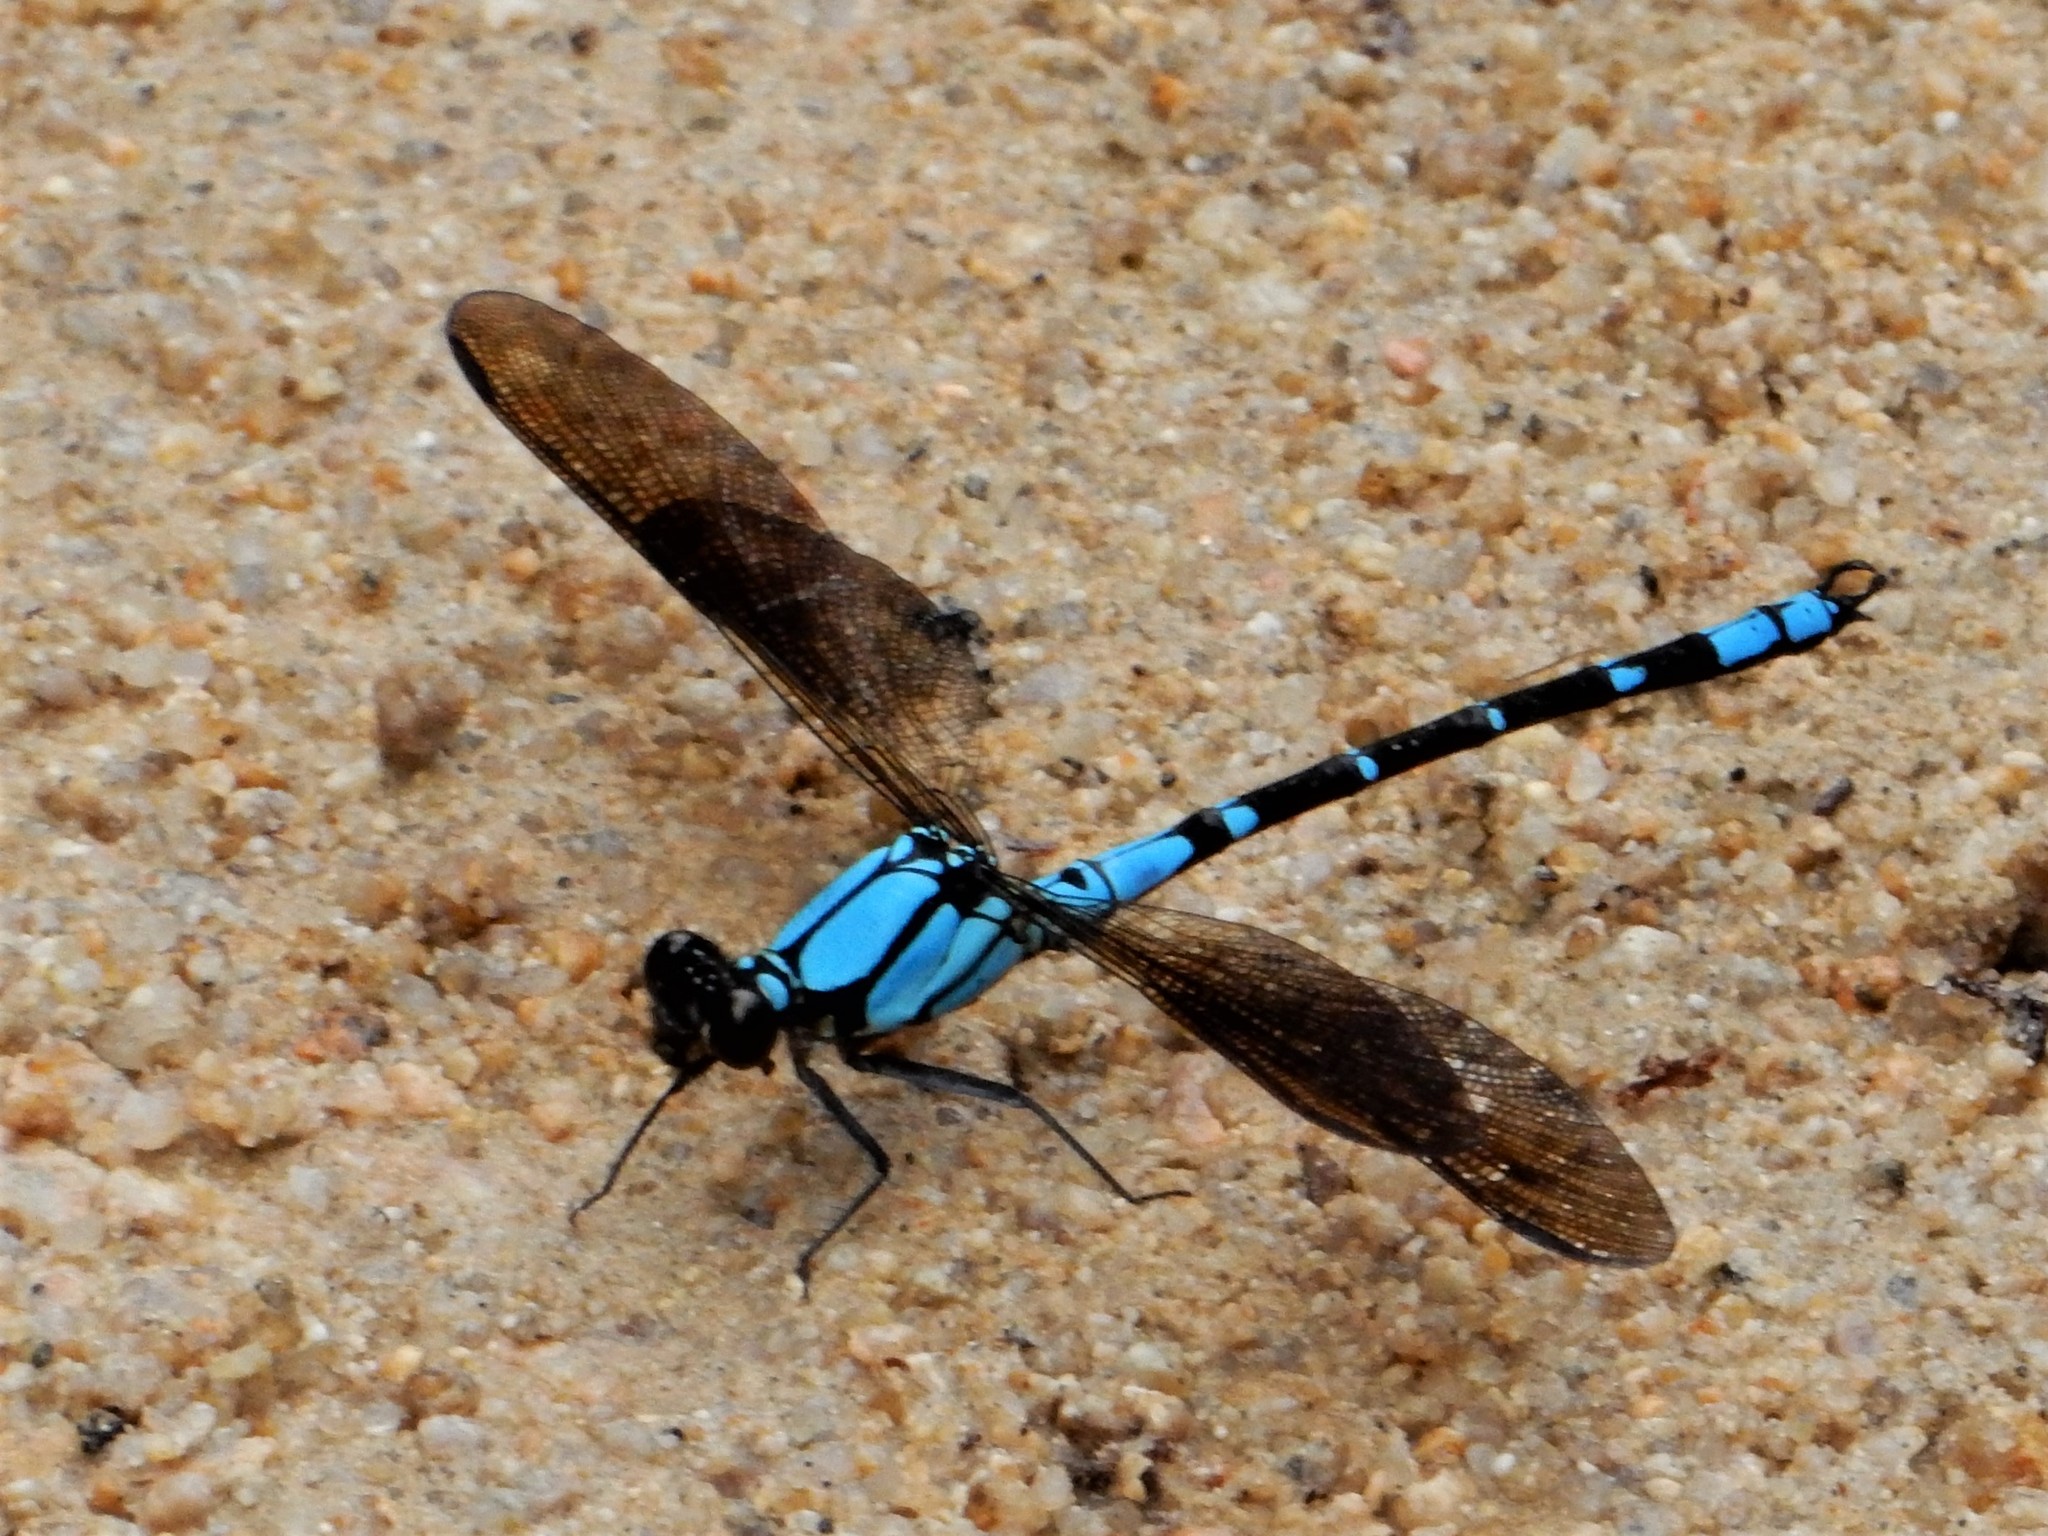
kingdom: Animalia
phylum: Arthropoda
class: Insecta
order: Odonata
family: Lestoideidae
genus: Diphlebia
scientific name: Diphlebia coerulescens
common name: Sapphire rockmaster
